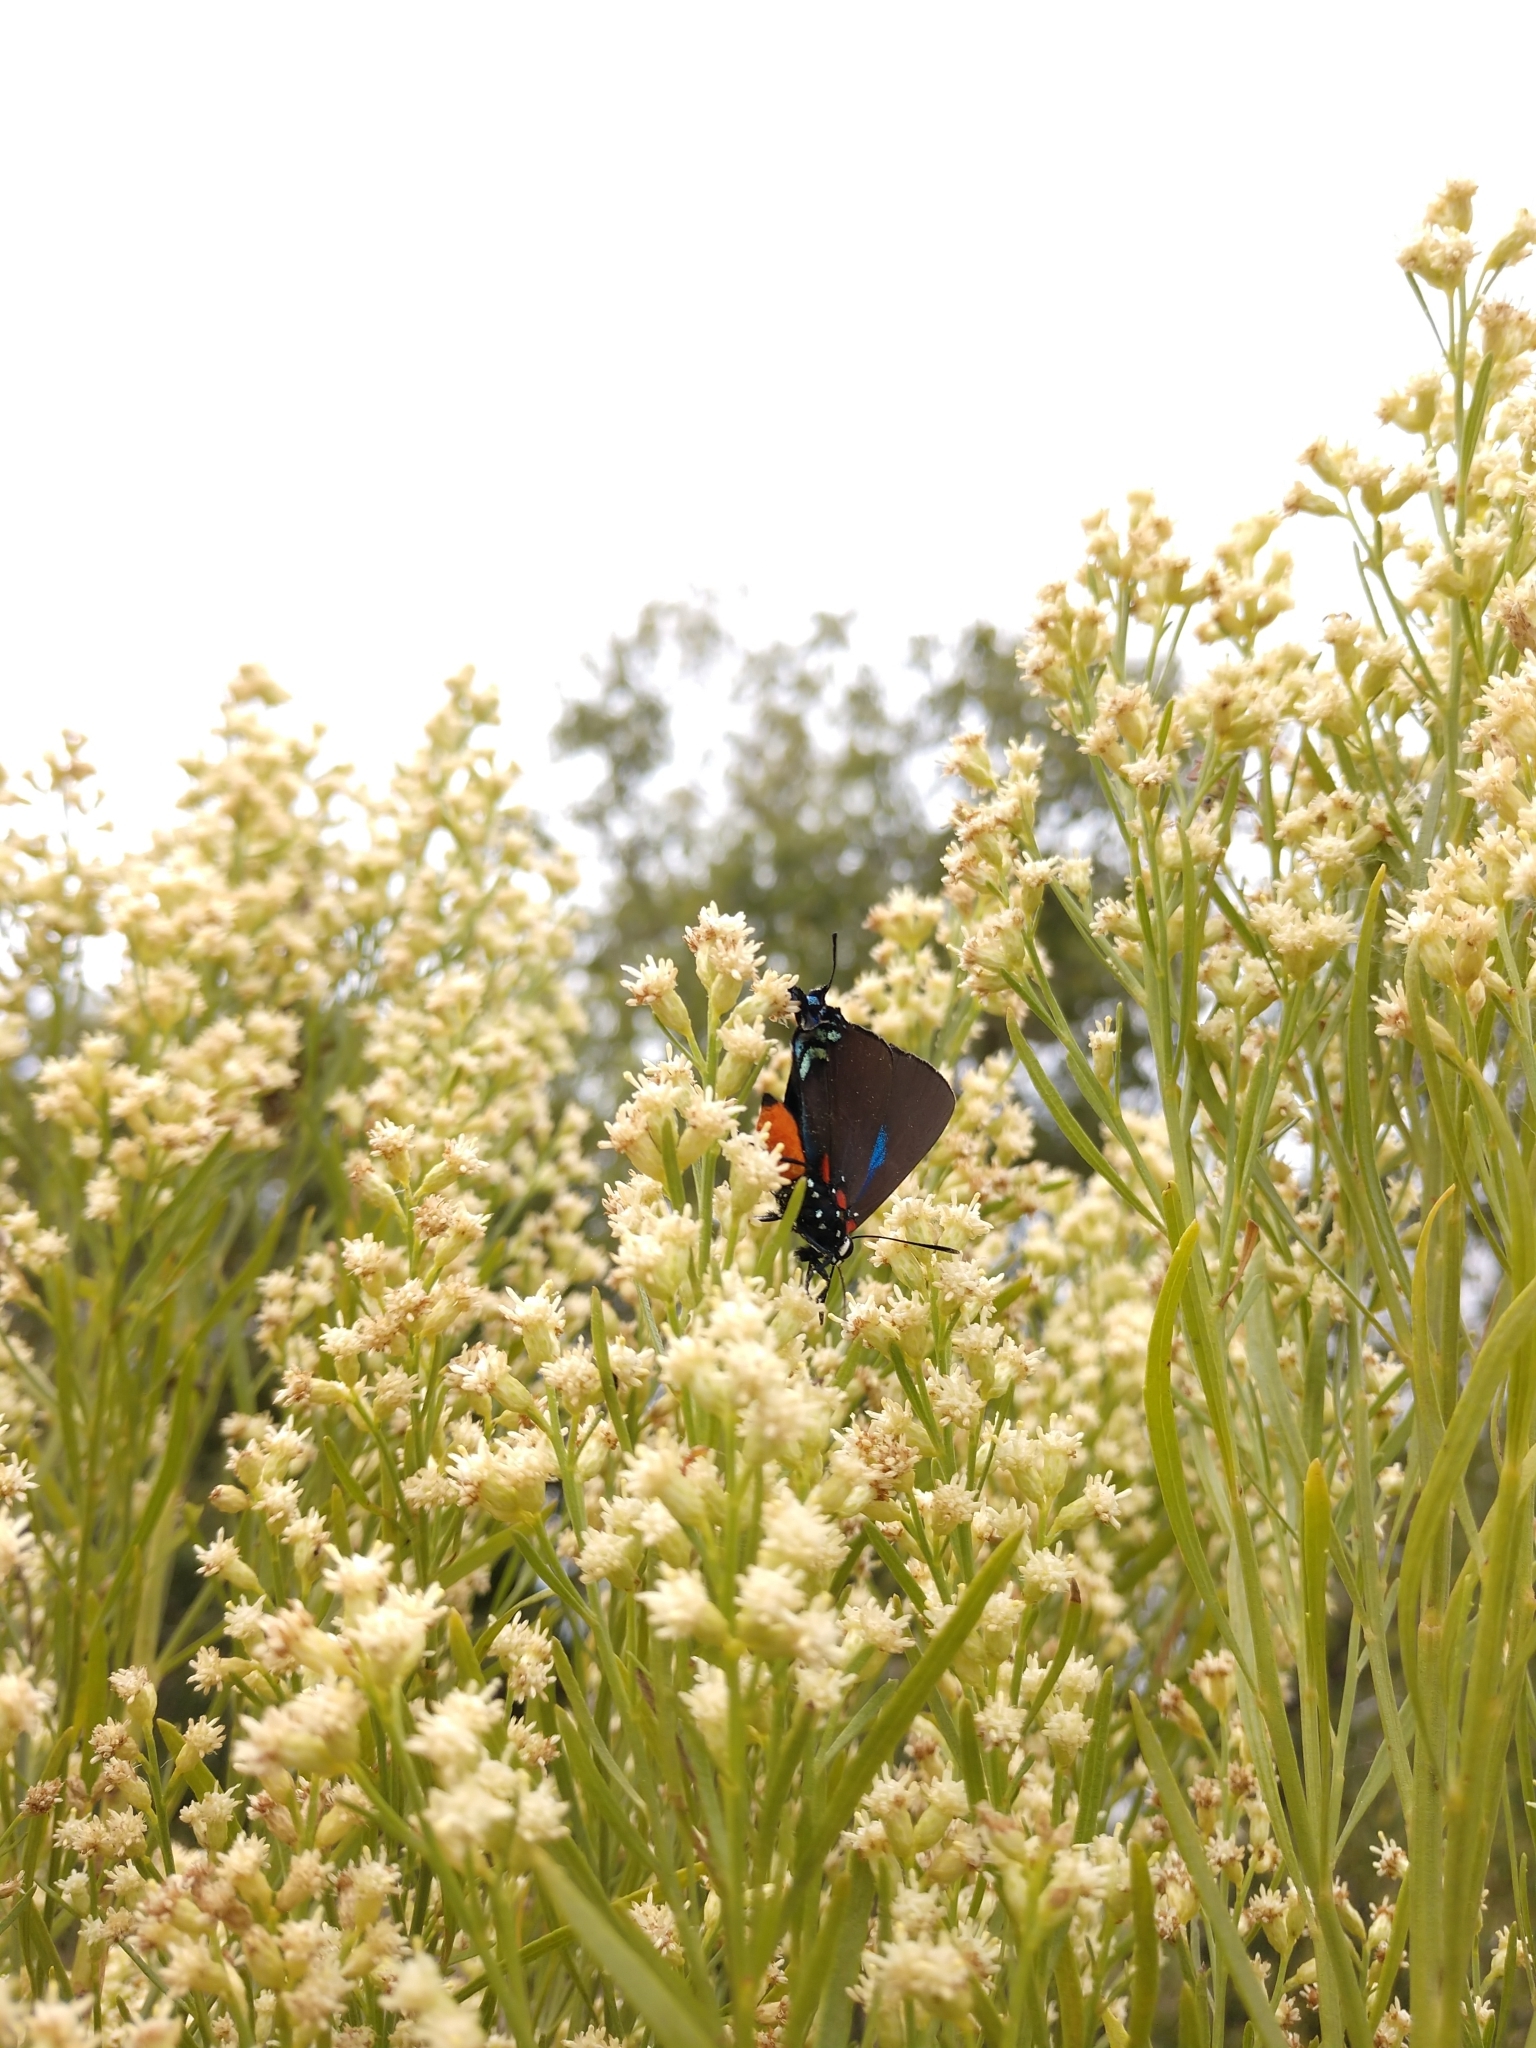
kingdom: Animalia
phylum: Arthropoda
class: Insecta
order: Lepidoptera
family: Lycaenidae
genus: Atlides
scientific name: Atlides halesus
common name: Great purple hairstreak
